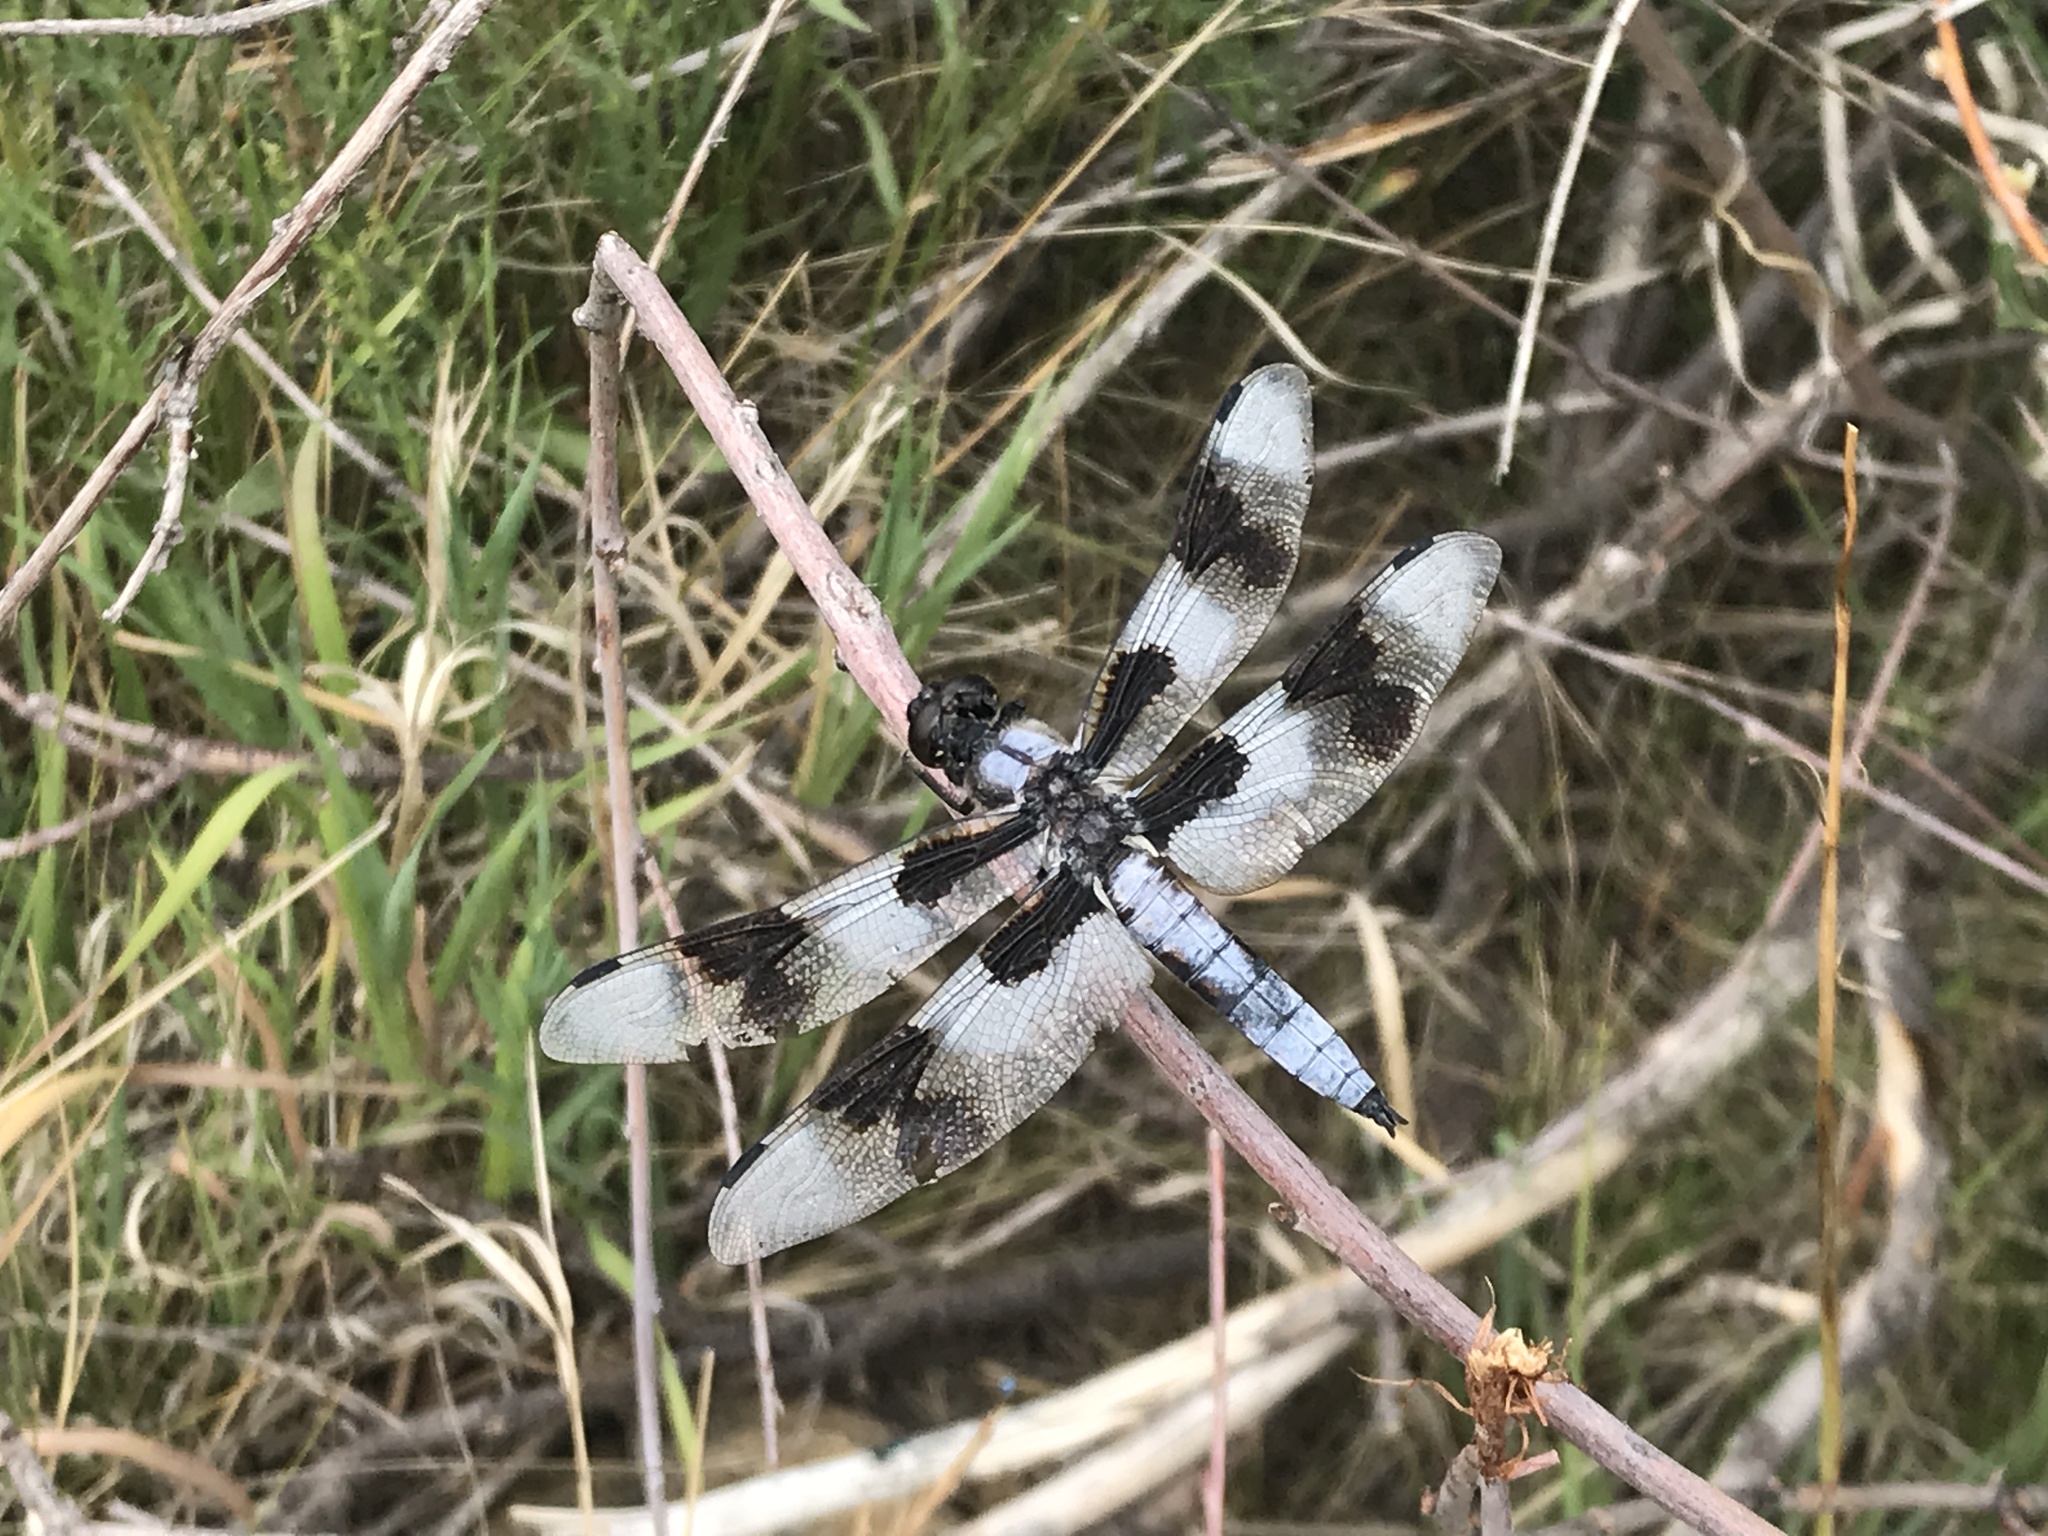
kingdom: Animalia
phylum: Arthropoda
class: Insecta
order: Odonata
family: Libellulidae
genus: Libellula
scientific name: Libellula forensis
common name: Eight-spotted skimmer
